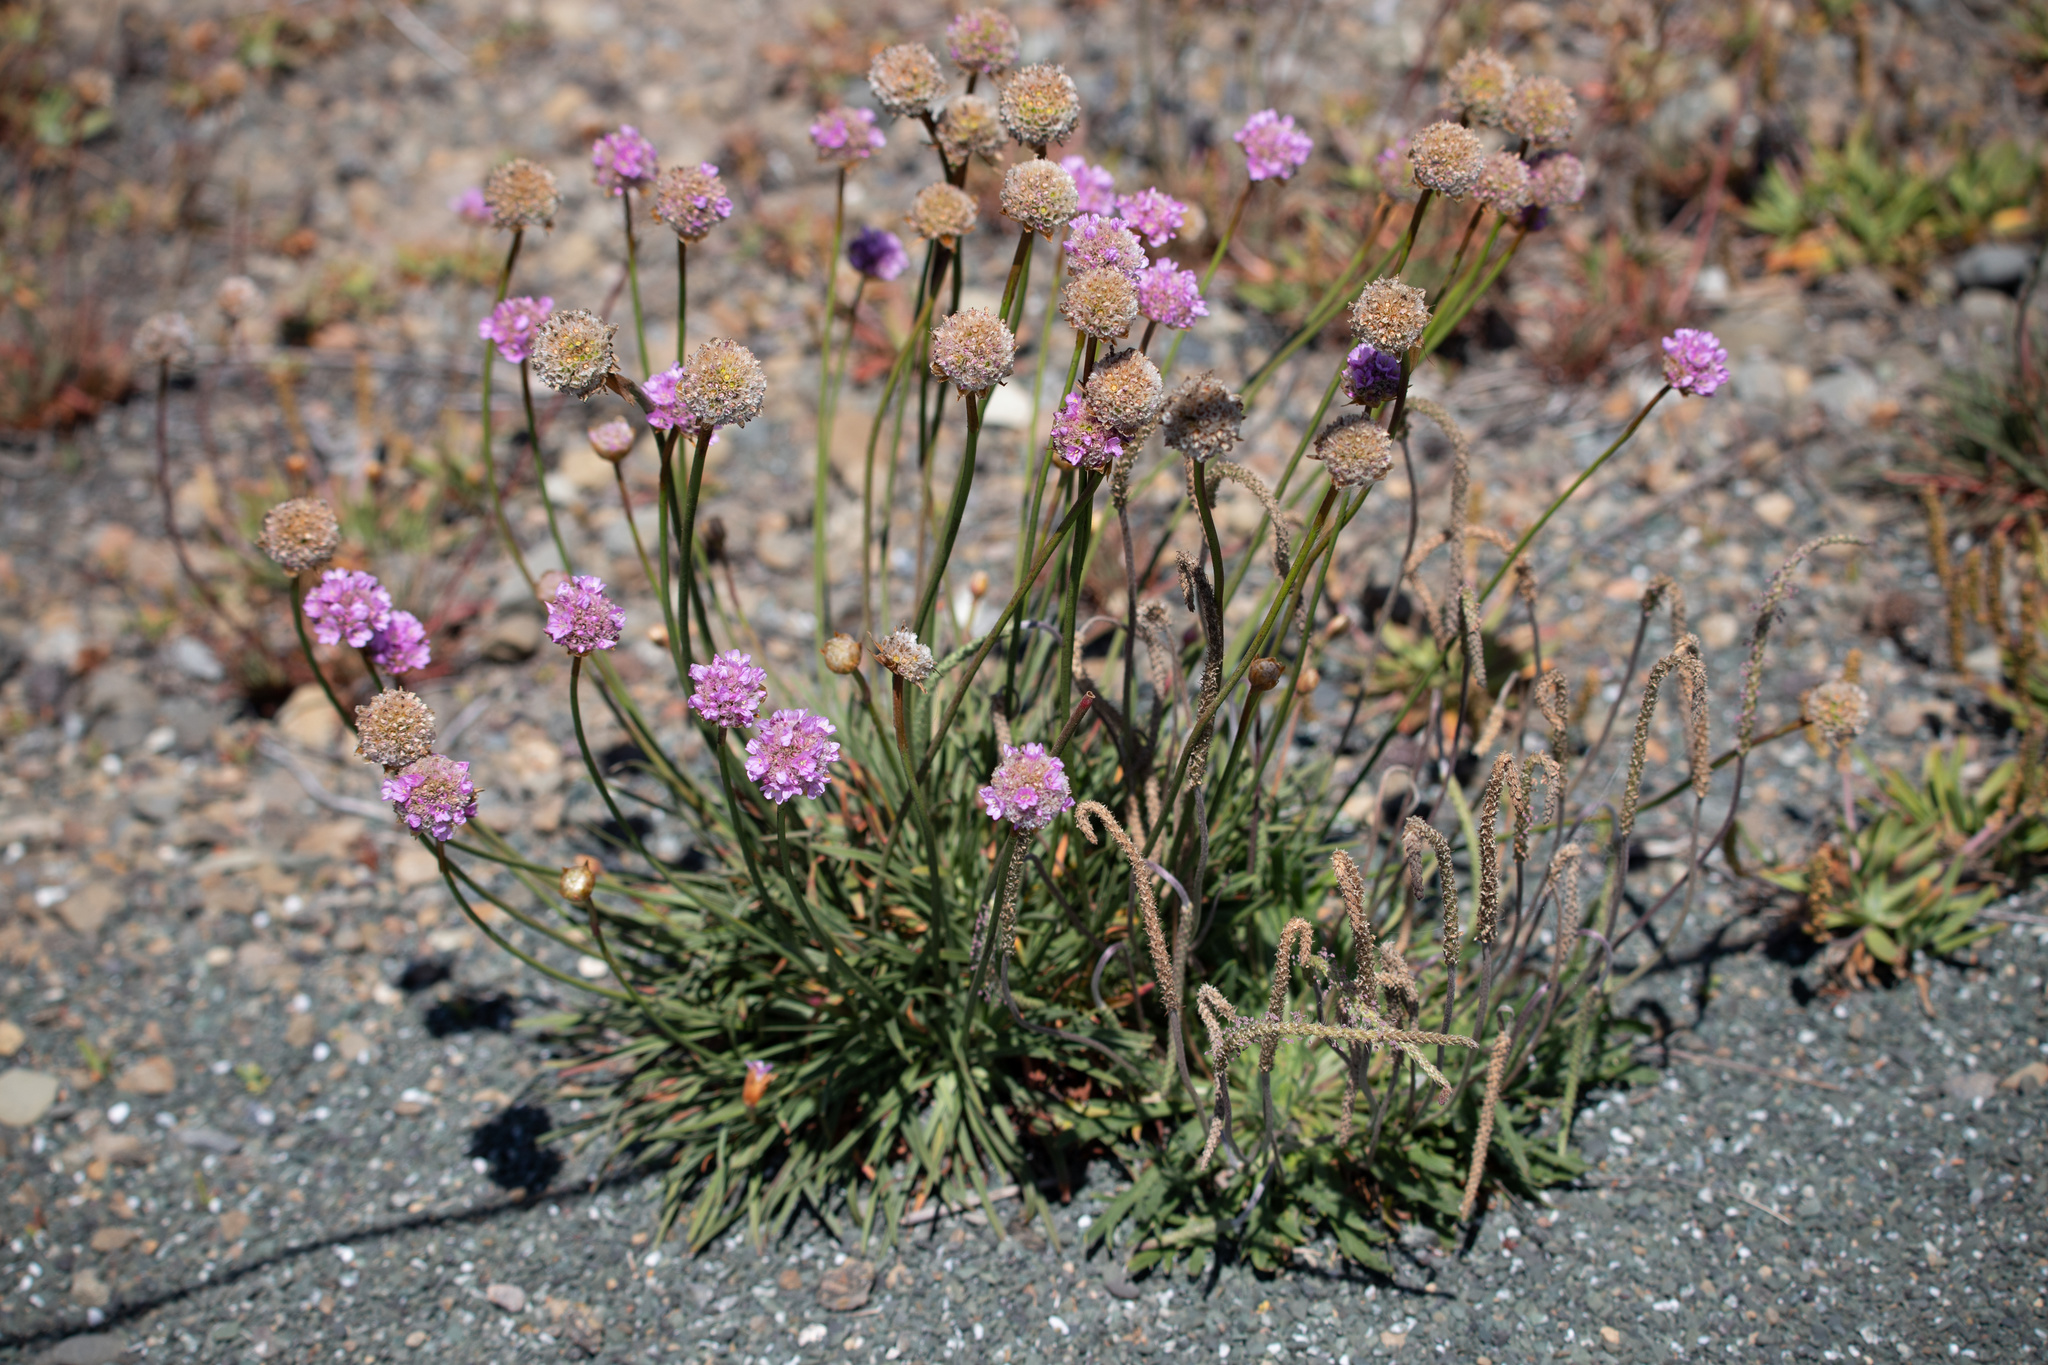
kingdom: Plantae
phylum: Tracheophyta
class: Magnoliopsida
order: Caryophyllales
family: Plumbaginaceae
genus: Armeria
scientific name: Armeria maritima
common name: Thrift
